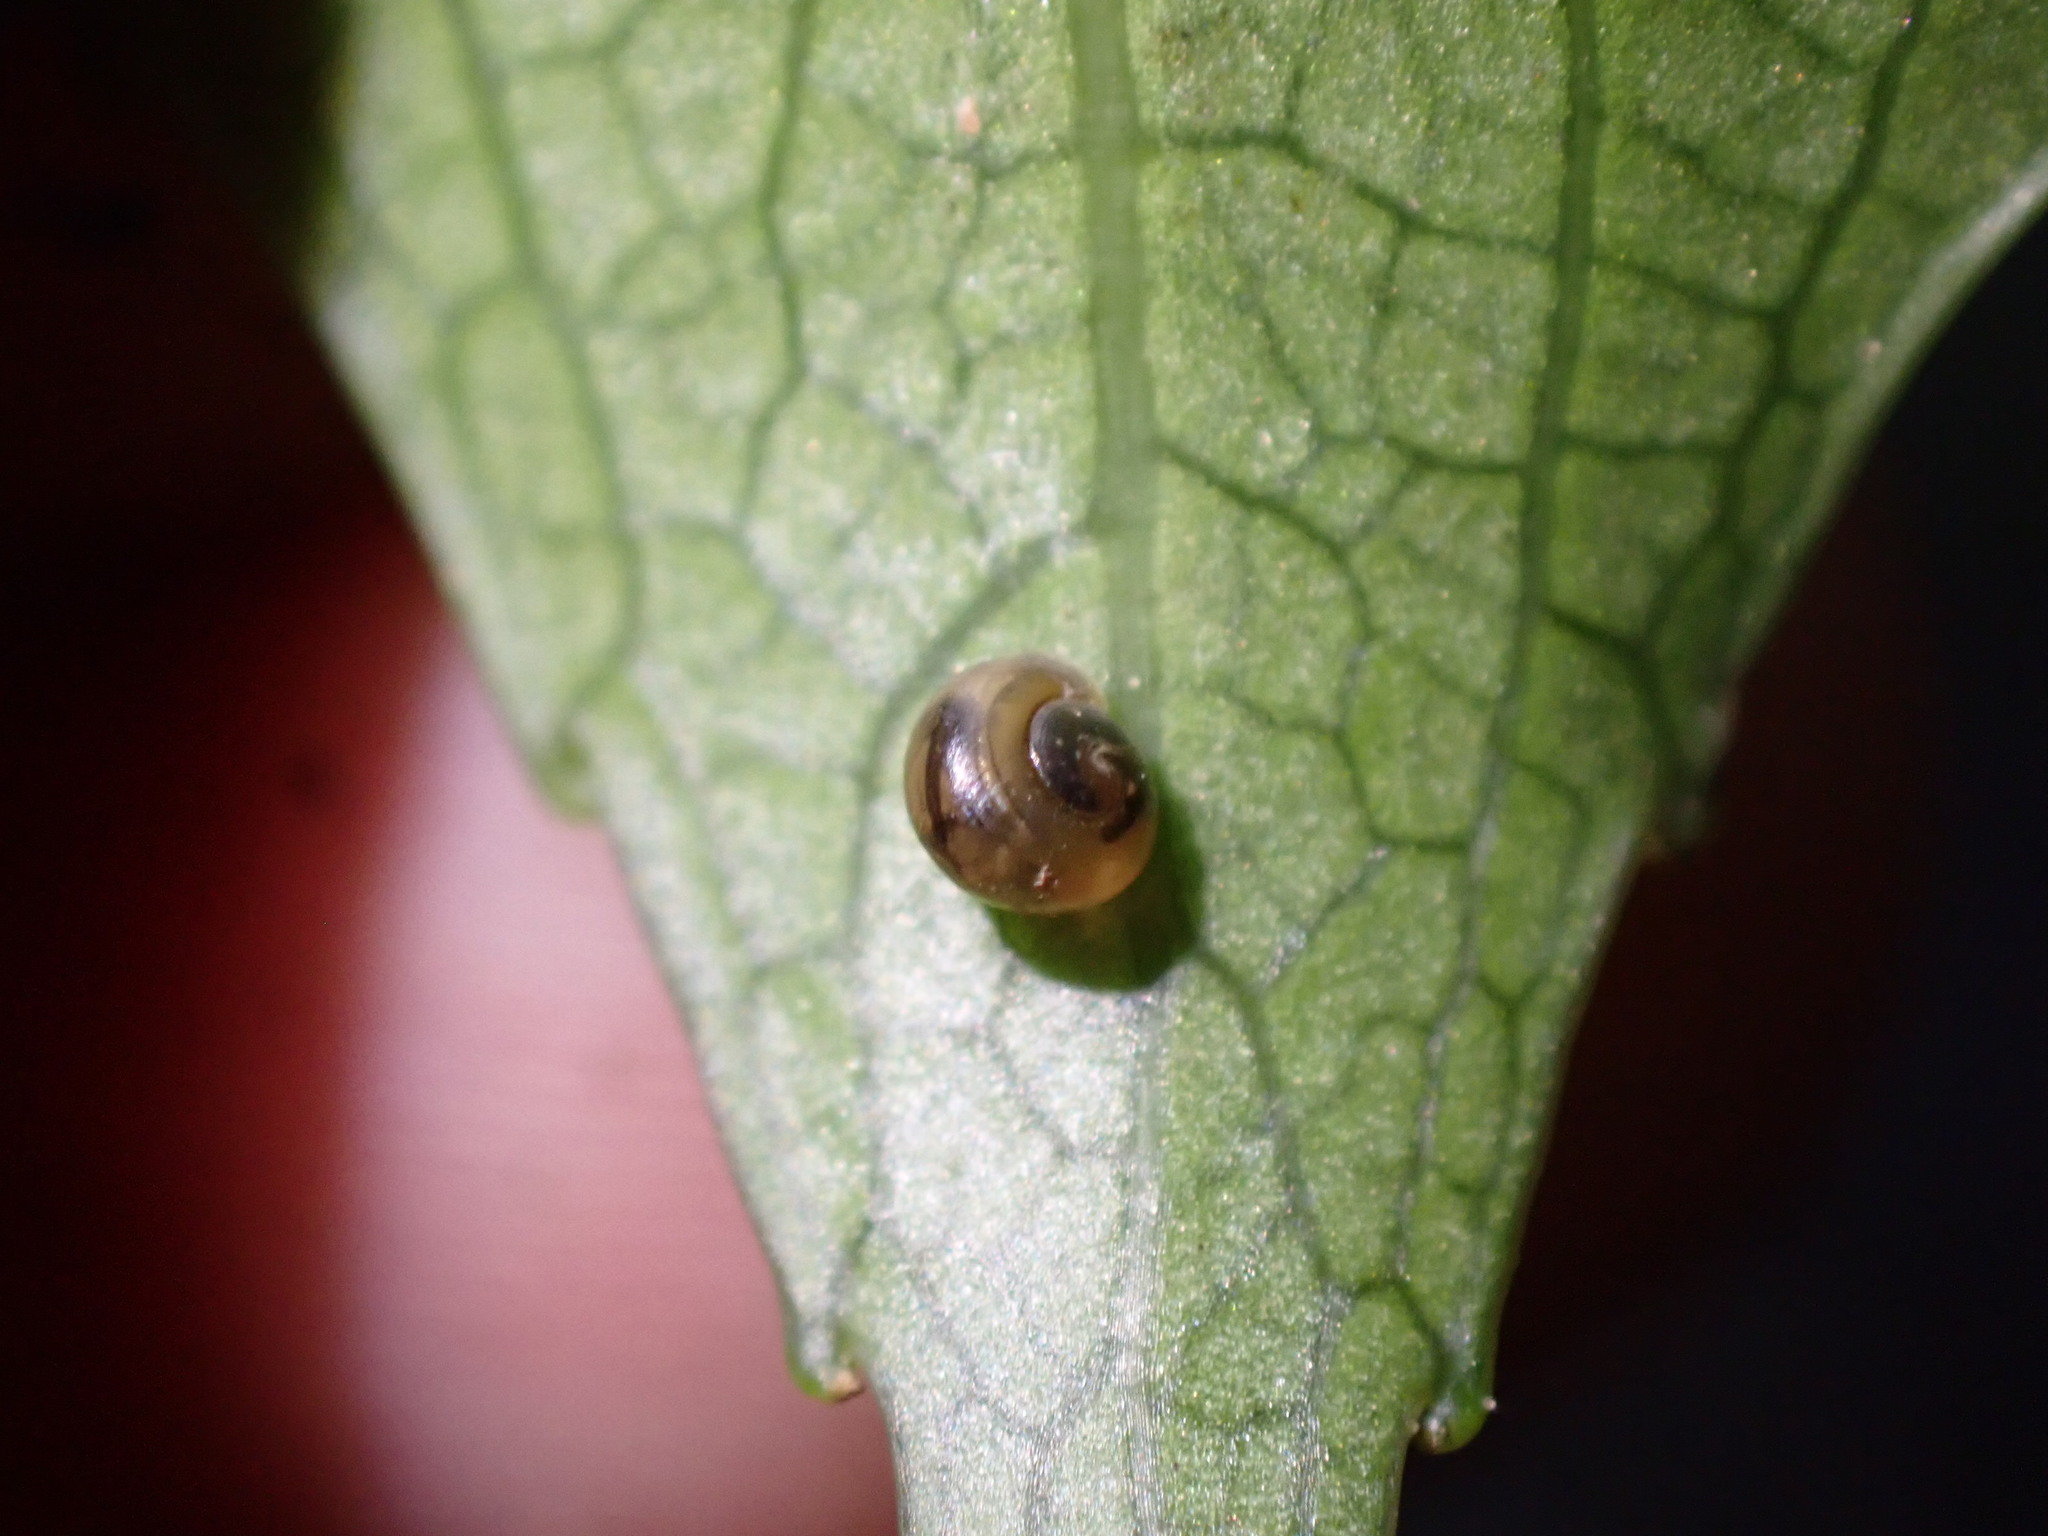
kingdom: Animalia
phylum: Mollusca
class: Gastropoda
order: Stylommatophora
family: Charopidae
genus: Serpho
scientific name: Serpho
